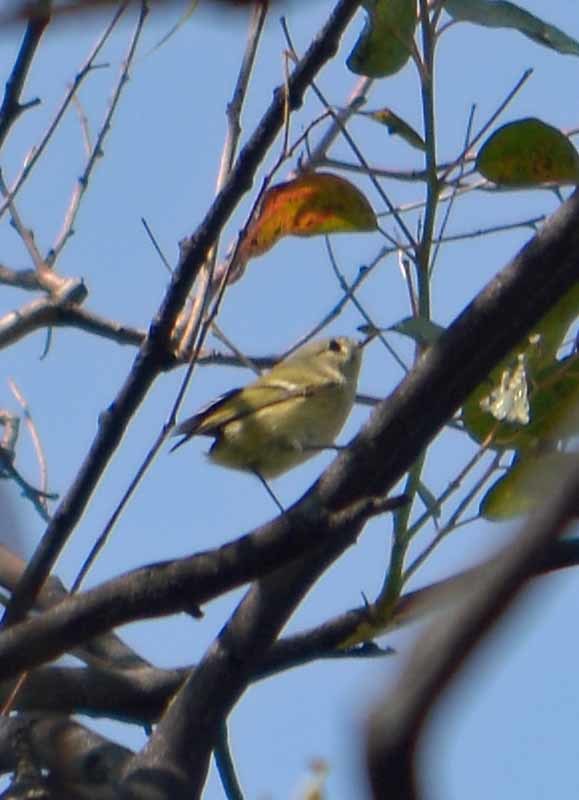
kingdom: Animalia
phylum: Chordata
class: Aves
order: Passeriformes
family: Regulidae
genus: Regulus
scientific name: Regulus calendula
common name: Ruby-crowned kinglet
